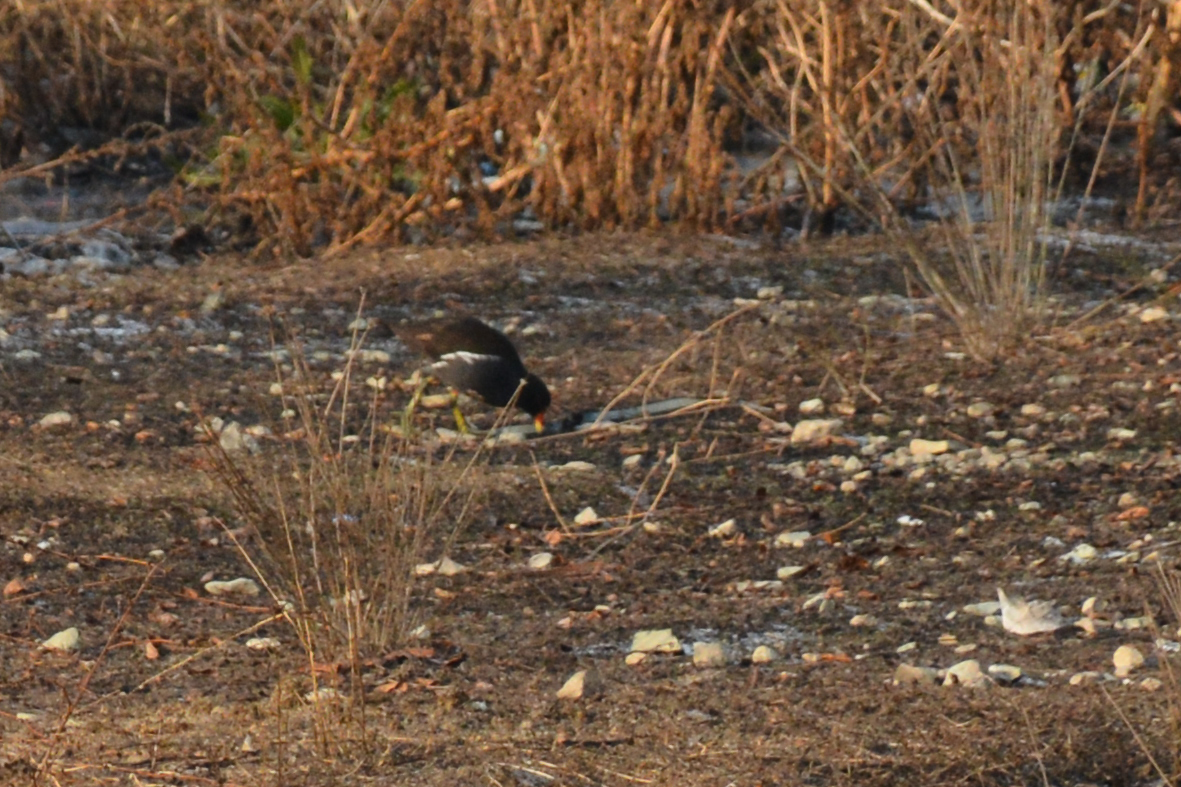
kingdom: Animalia
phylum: Chordata
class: Aves
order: Gruiformes
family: Rallidae
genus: Gallinula
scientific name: Gallinula chloropus
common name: Common moorhen
